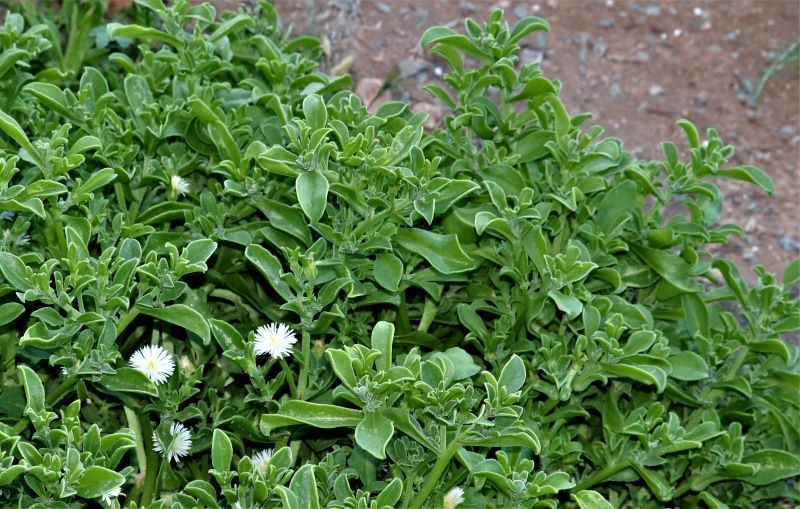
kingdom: Plantae
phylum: Tracheophyta
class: Magnoliopsida
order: Caryophyllales
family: Aizoaceae
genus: Mesembryanthemum
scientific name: Mesembryanthemum aitonis
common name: Angled iceplant
